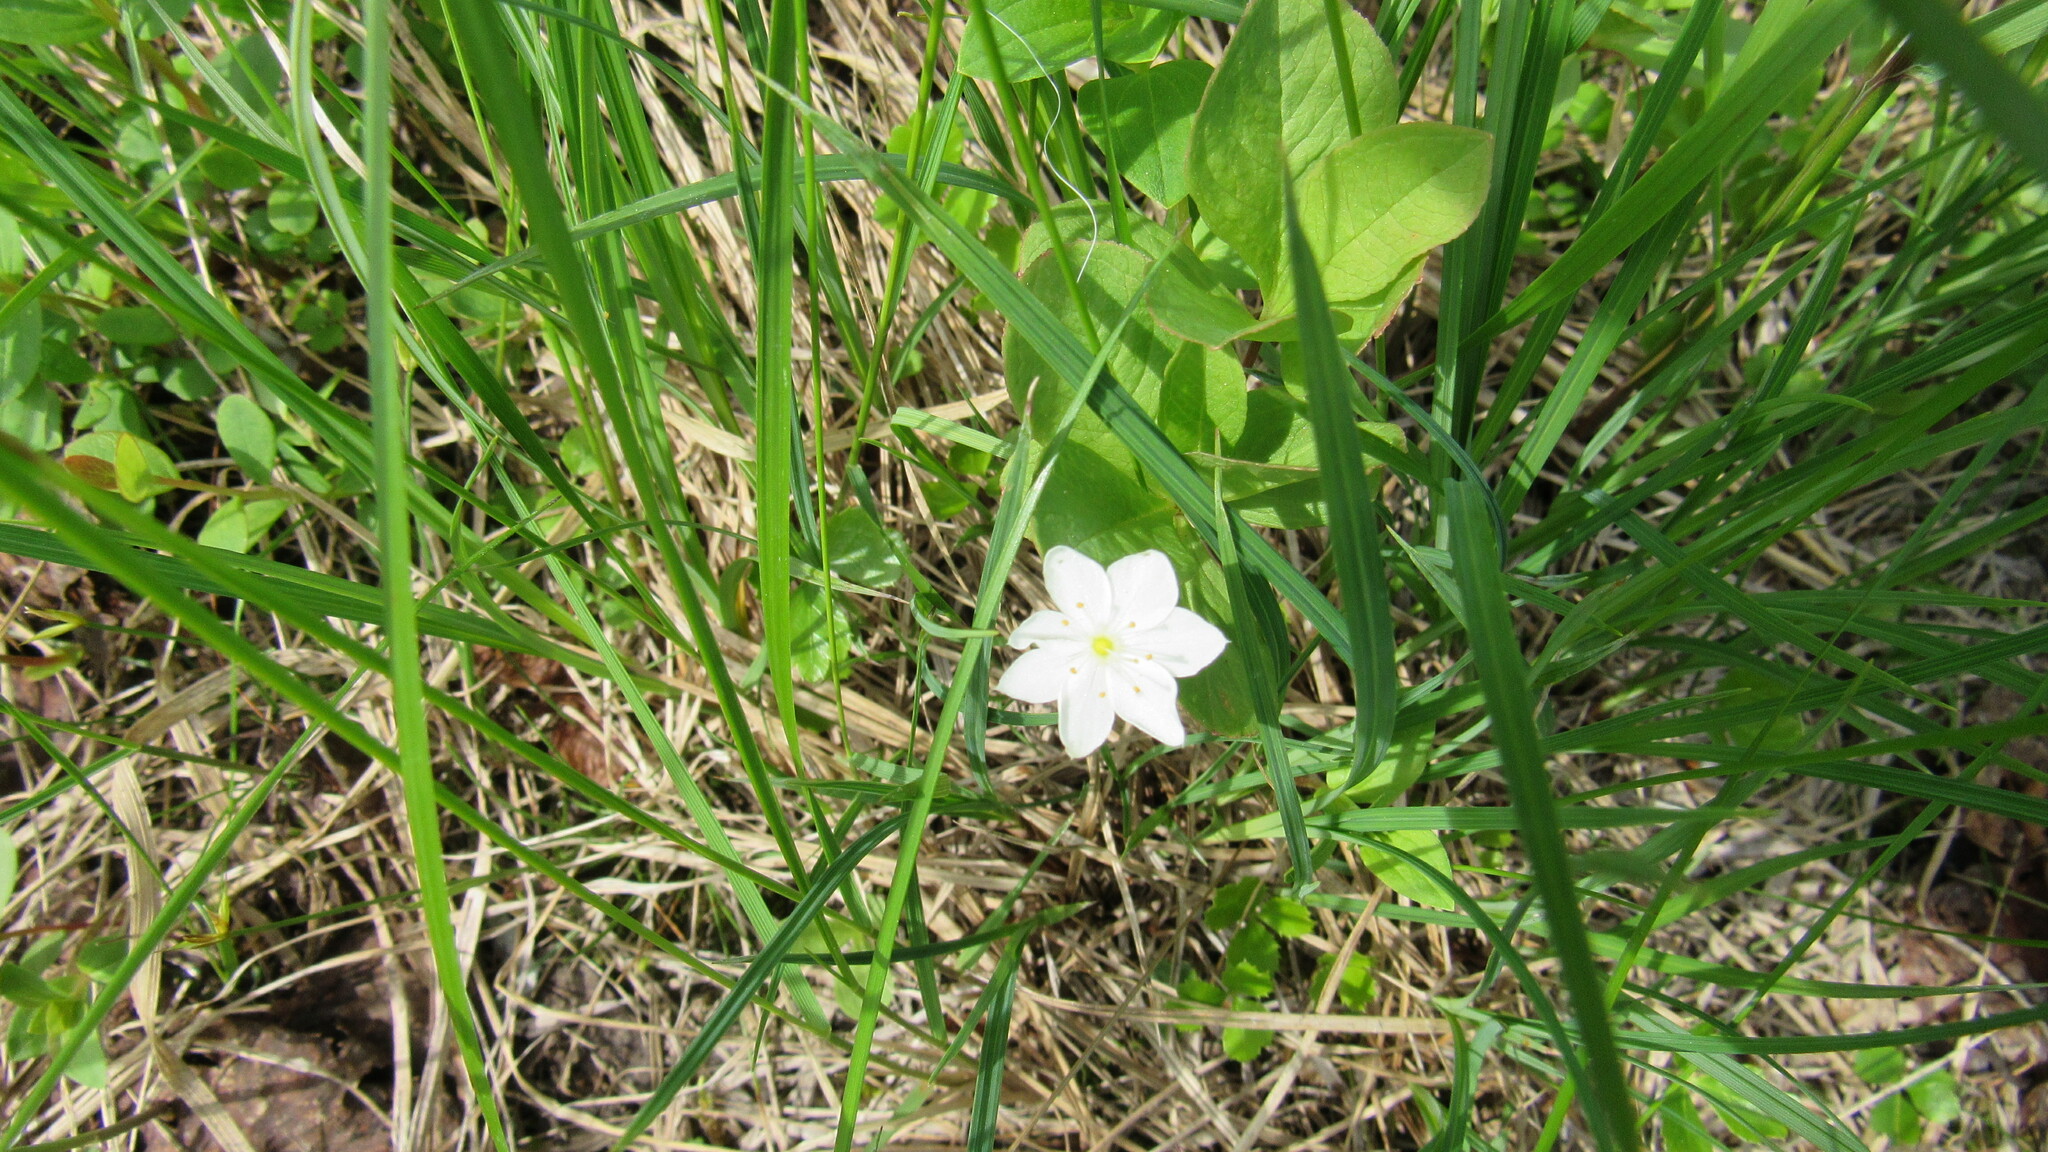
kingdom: Plantae
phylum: Tracheophyta
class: Magnoliopsida
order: Ericales
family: Primulaceae
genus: Lysimachia
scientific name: Lysimachia europaea
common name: Arctic starflower
